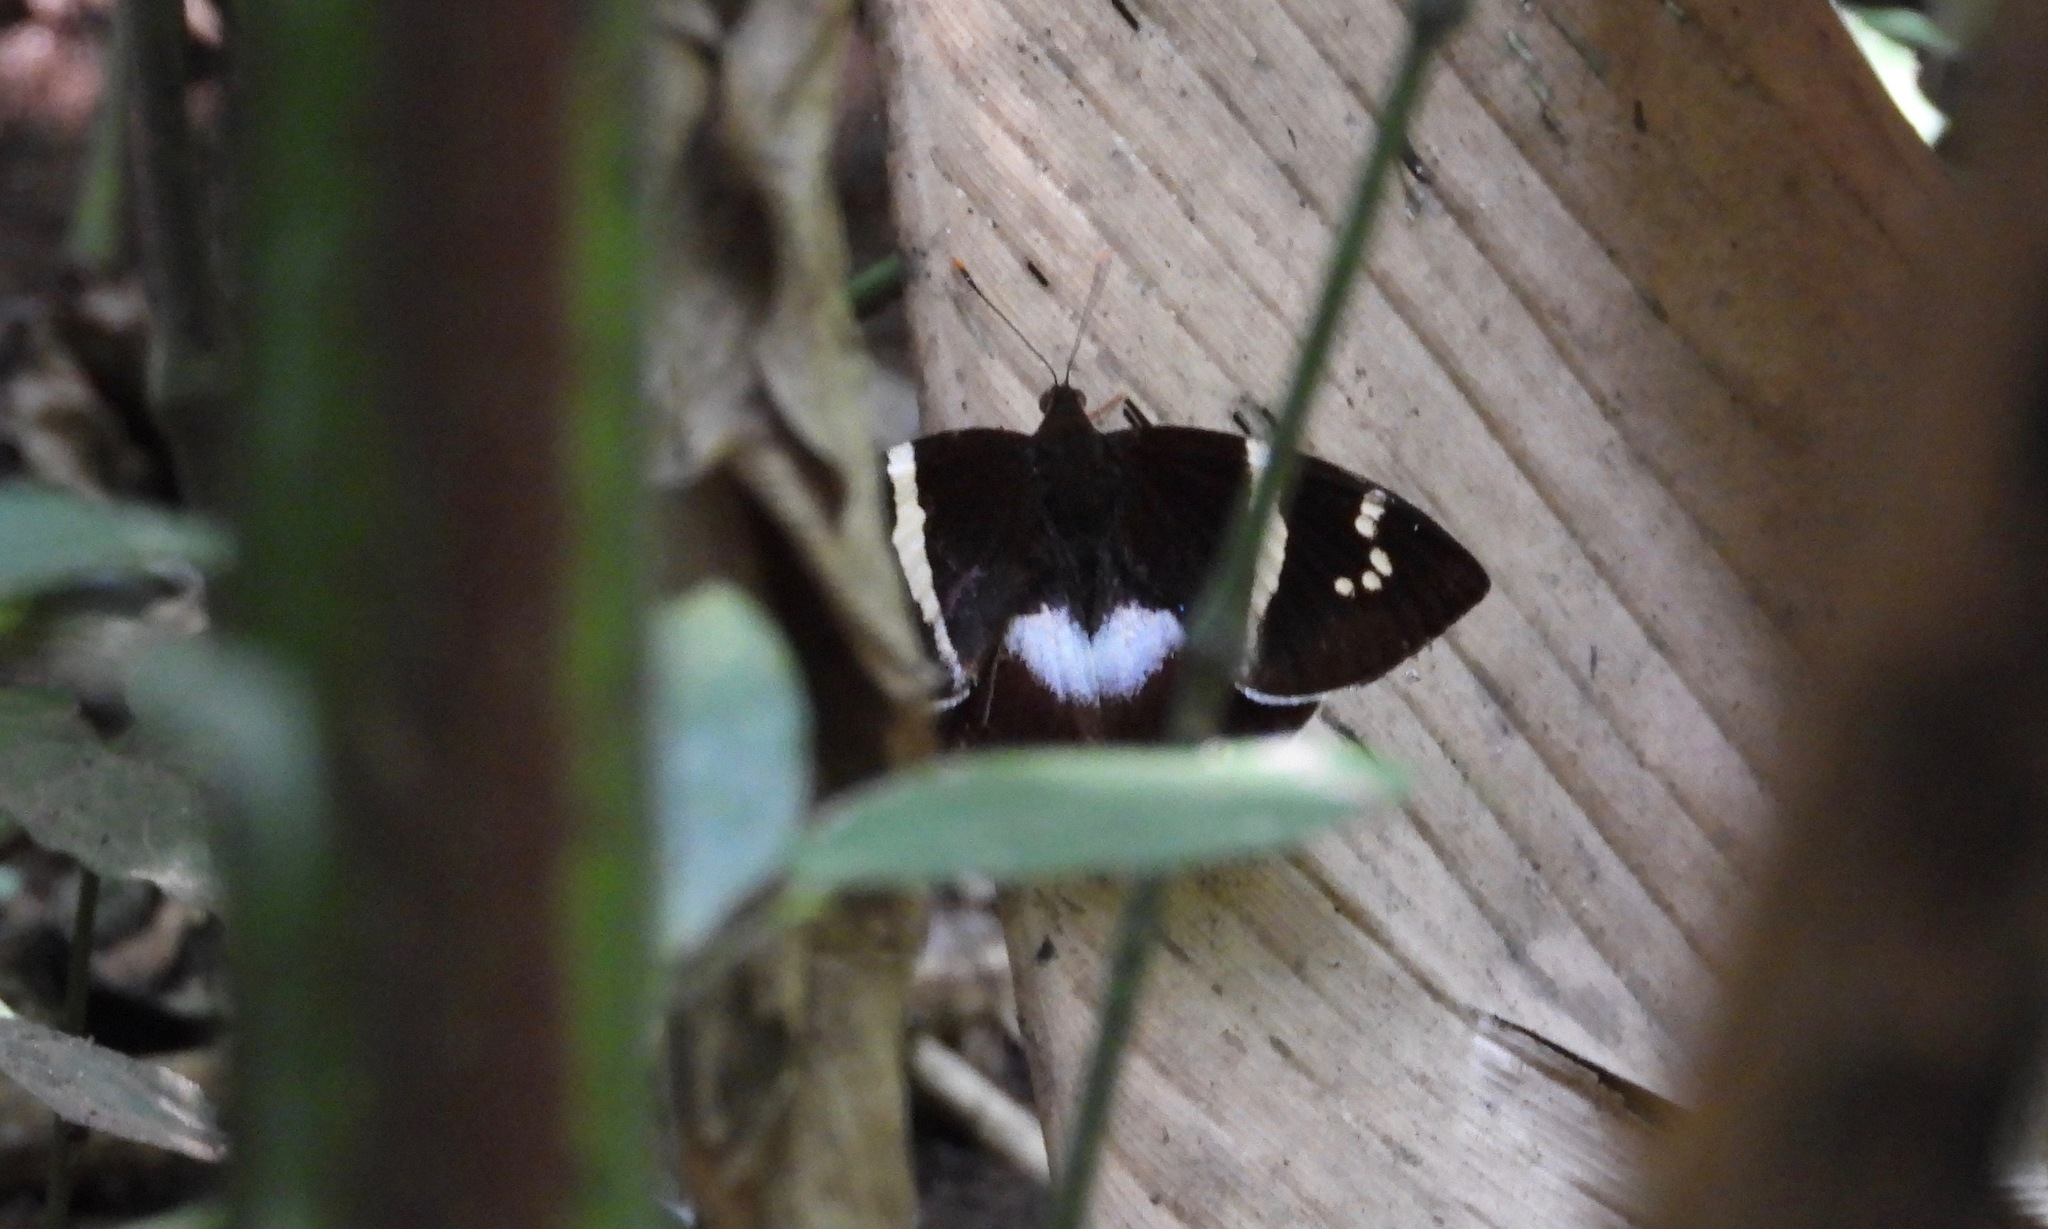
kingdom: Animalia
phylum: Arthropoda
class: Insecta
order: Lepidoptera
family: Castniidae
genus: Castniomera
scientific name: Castniomera atymnius
